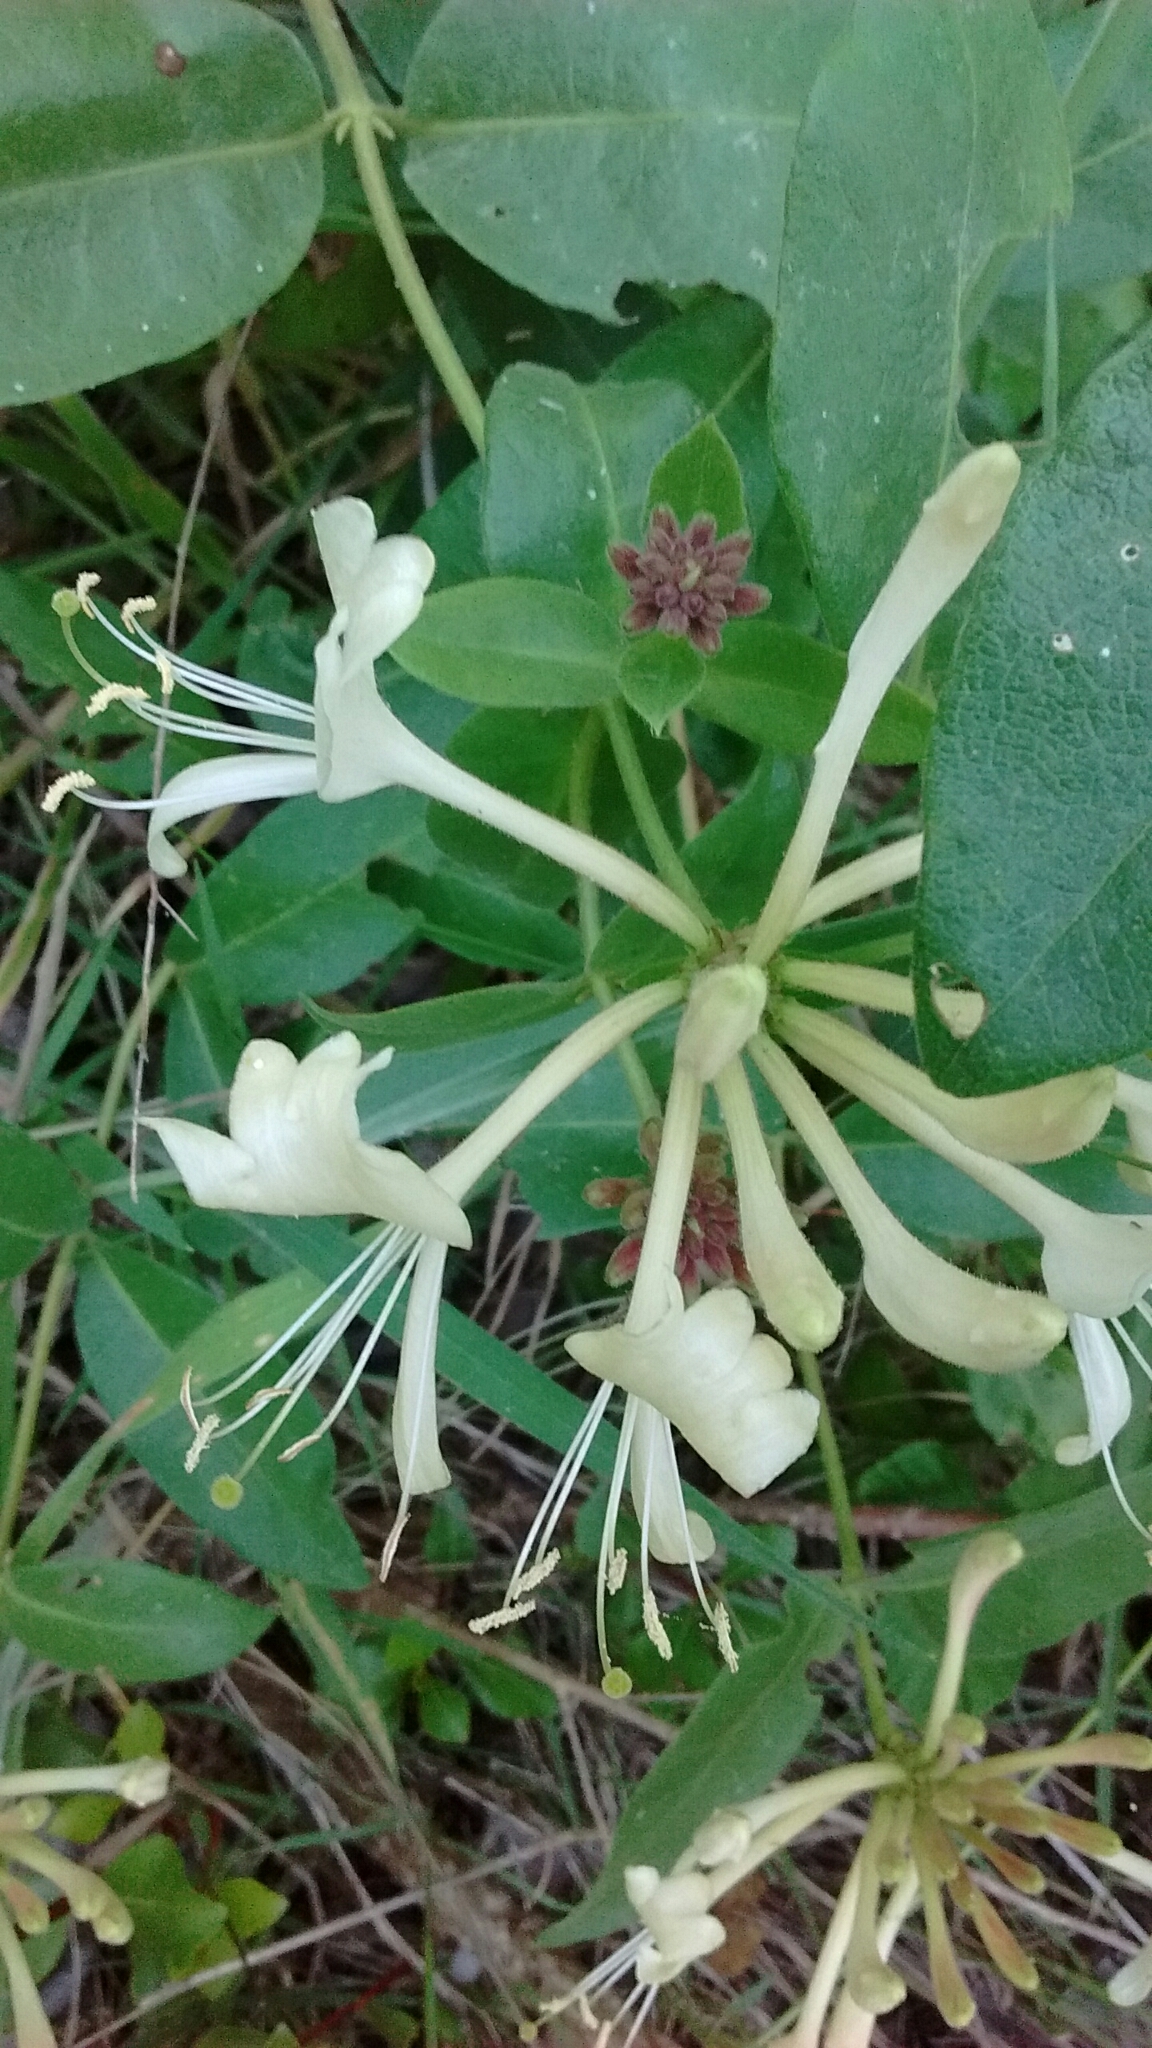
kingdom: Plantae
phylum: Tracheophyta
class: Magnoliopsida
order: Dipsacales
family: Caprifoliaceae
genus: Lonicera
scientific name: Lonicera periclymenum
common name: European honeysuckle
